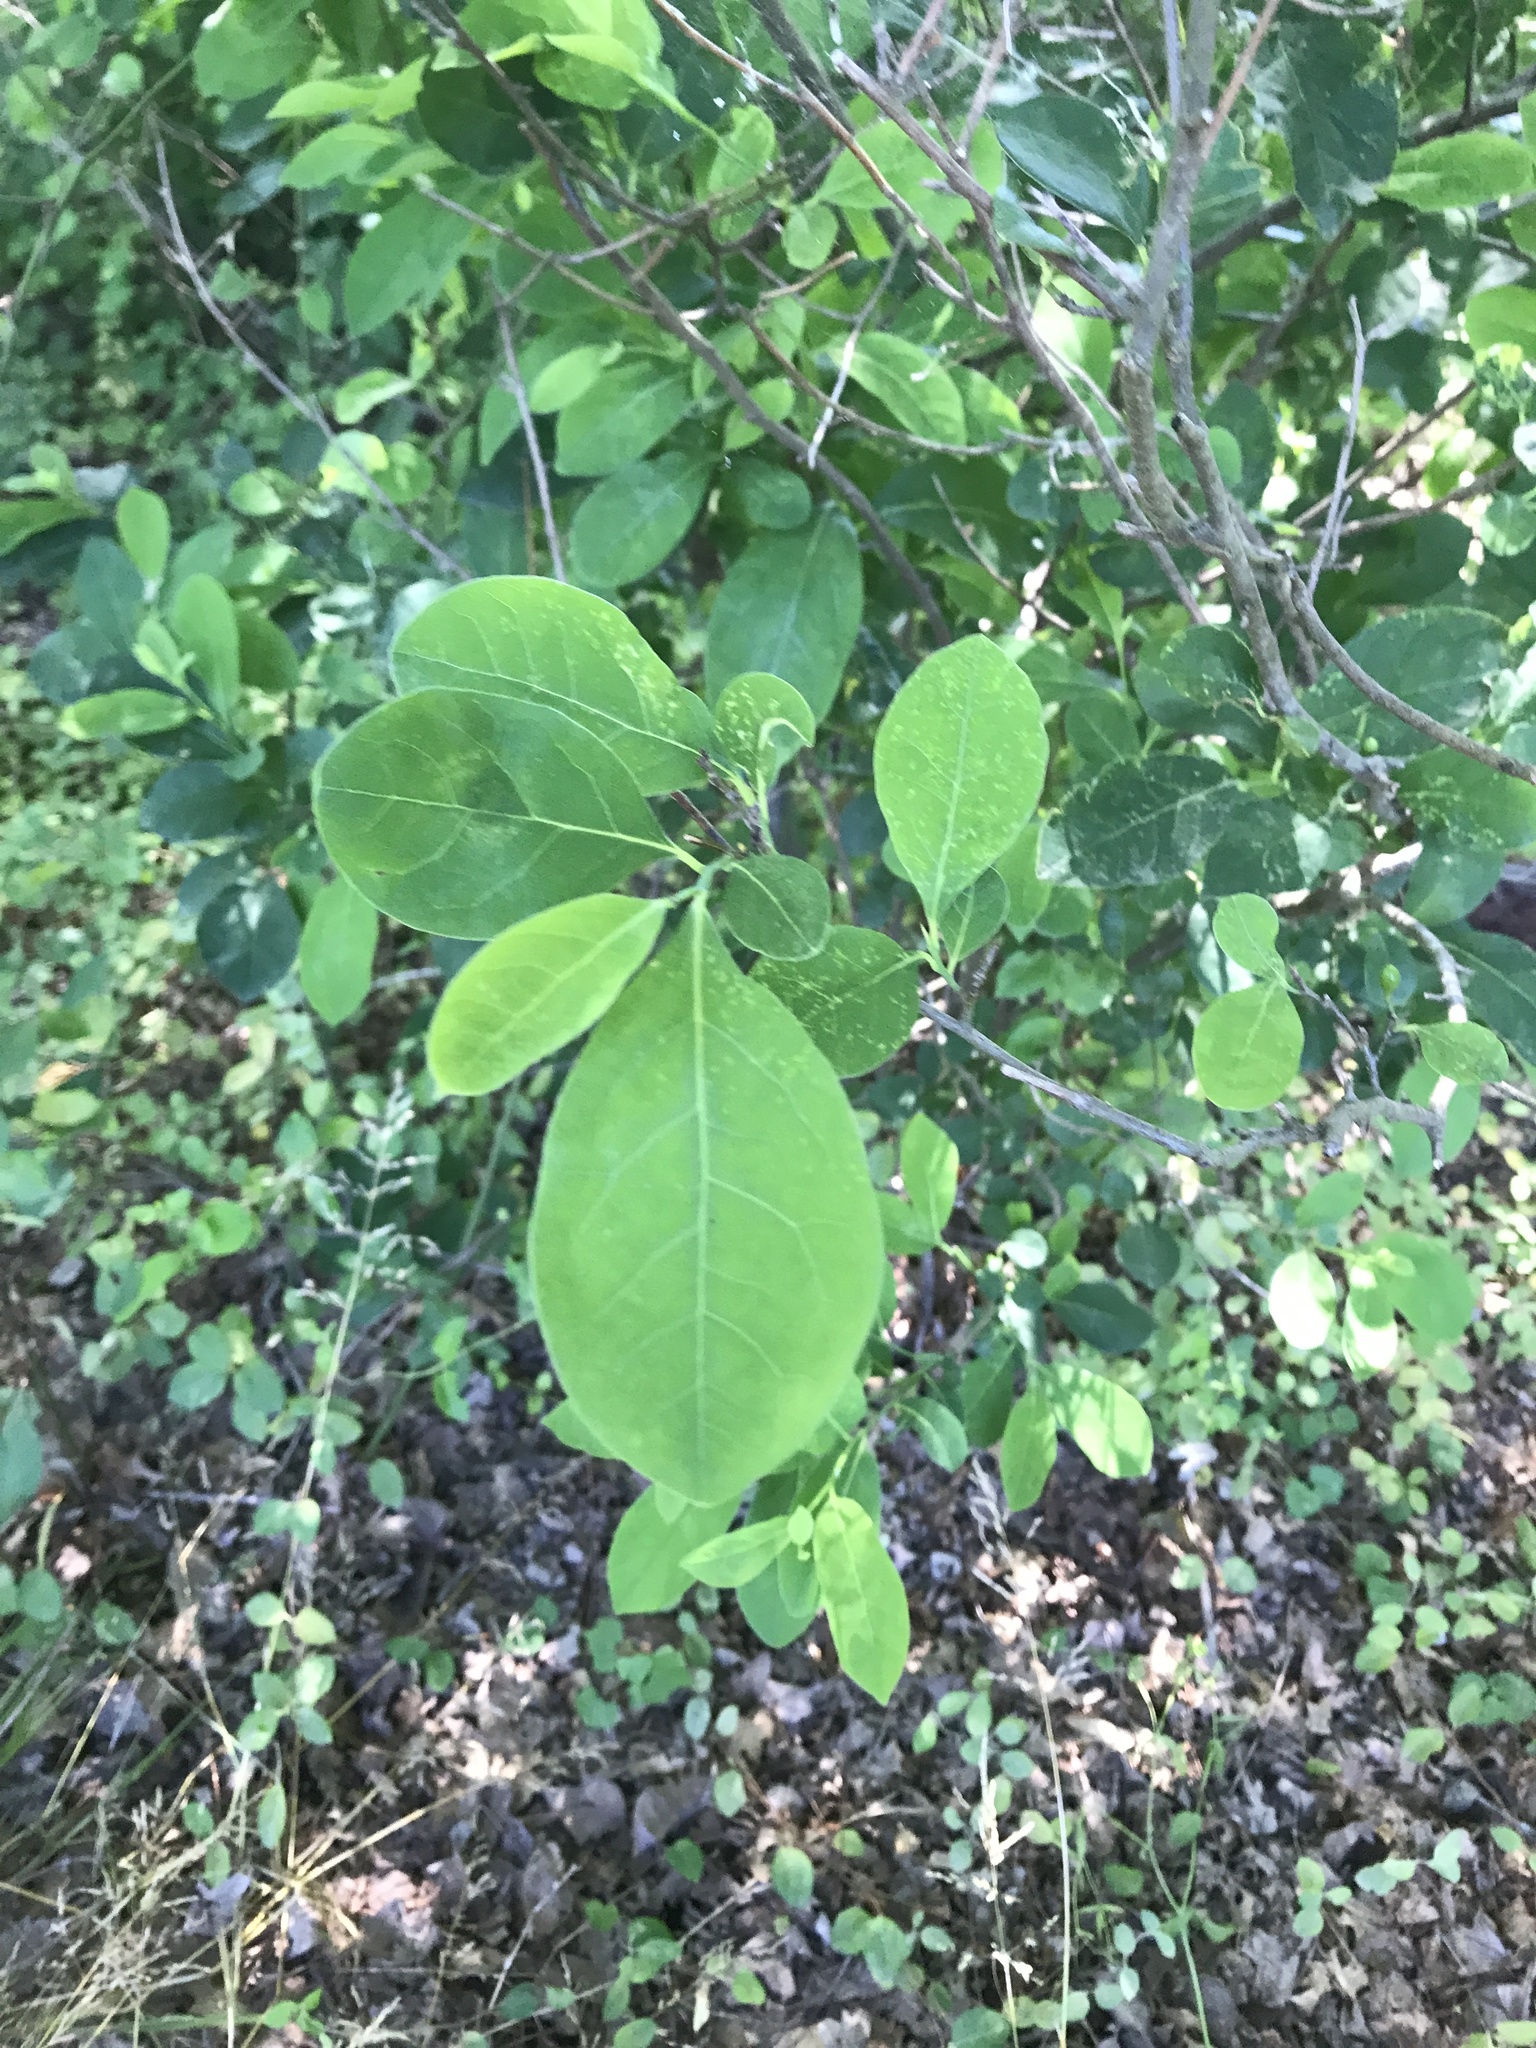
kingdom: Plantae
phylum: Tracheophyta
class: Magnoliopsida
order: Laurales
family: Lauraceae
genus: Lindera
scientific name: Lindera benzoin
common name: Spicebush
